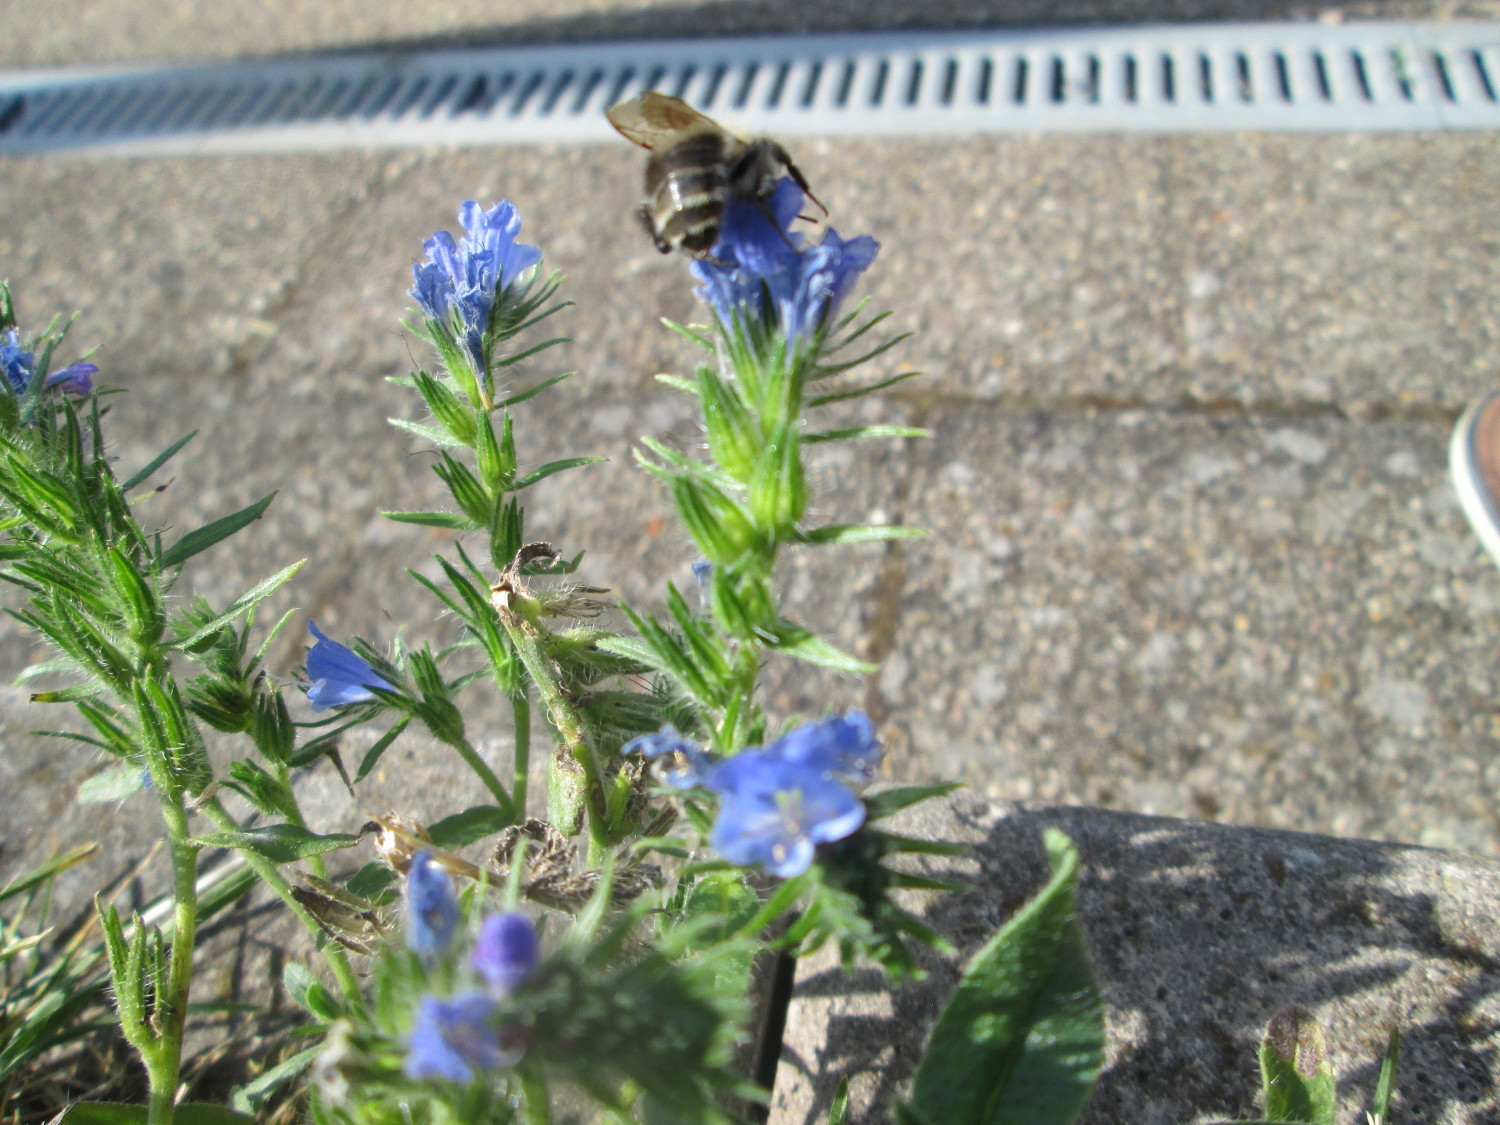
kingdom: Plantae
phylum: Tracheophyta
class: Magnoliopsida
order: Boraginales
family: Boraginaceae
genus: Echium
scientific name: Echium vulgare
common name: Common viper's bugloss
